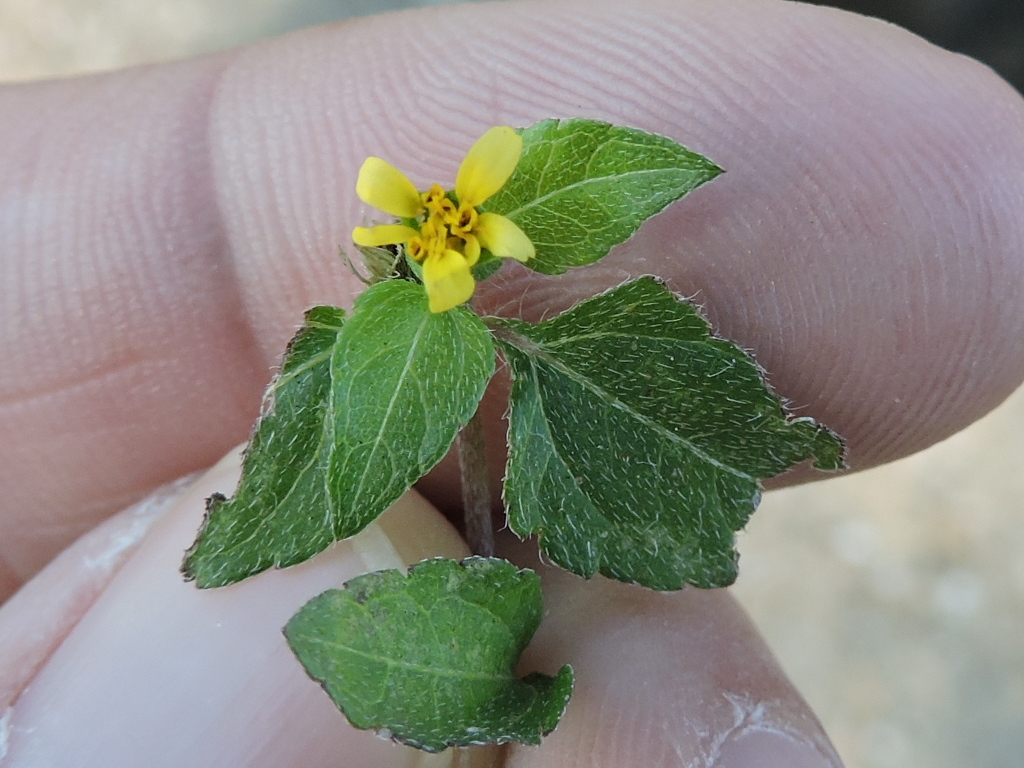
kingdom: Plantae
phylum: Tracheophyta
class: Magnoliopsida
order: Asterales
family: Asteraceae
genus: Calyptocarpus
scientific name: Calyptocarpus vialis
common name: Straggler daisy
